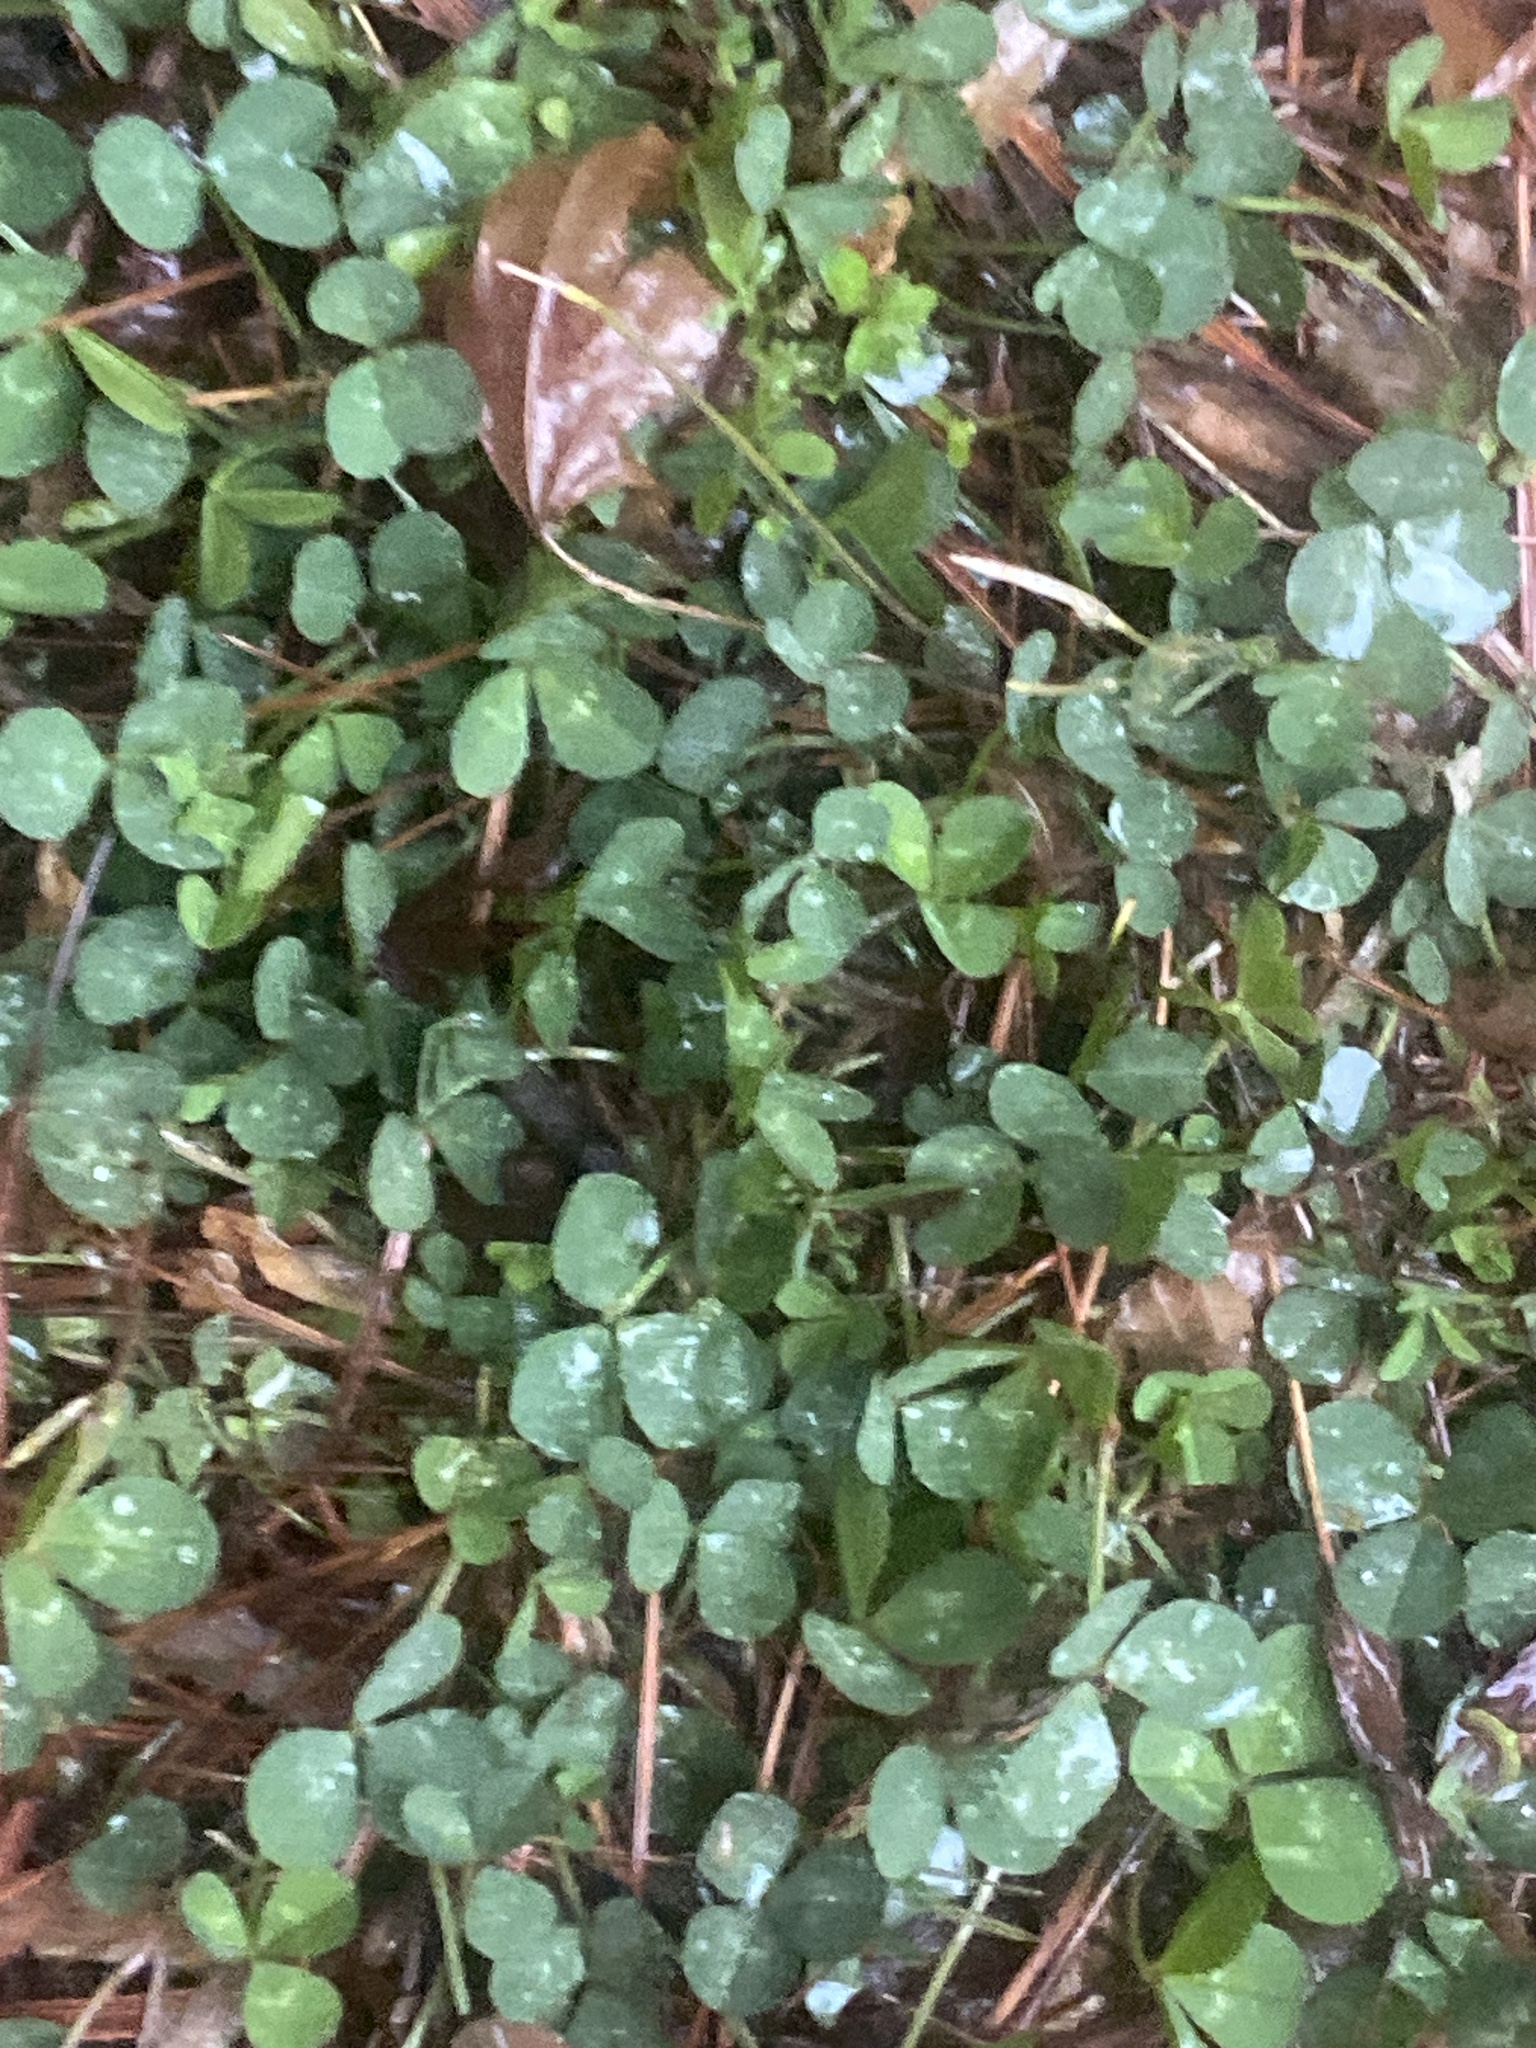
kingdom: Plantae
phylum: Tracheophyta
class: Magnoliopsida
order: Fabales
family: Fabaceae
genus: Trifolium
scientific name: Trifolium repens
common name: White clover
